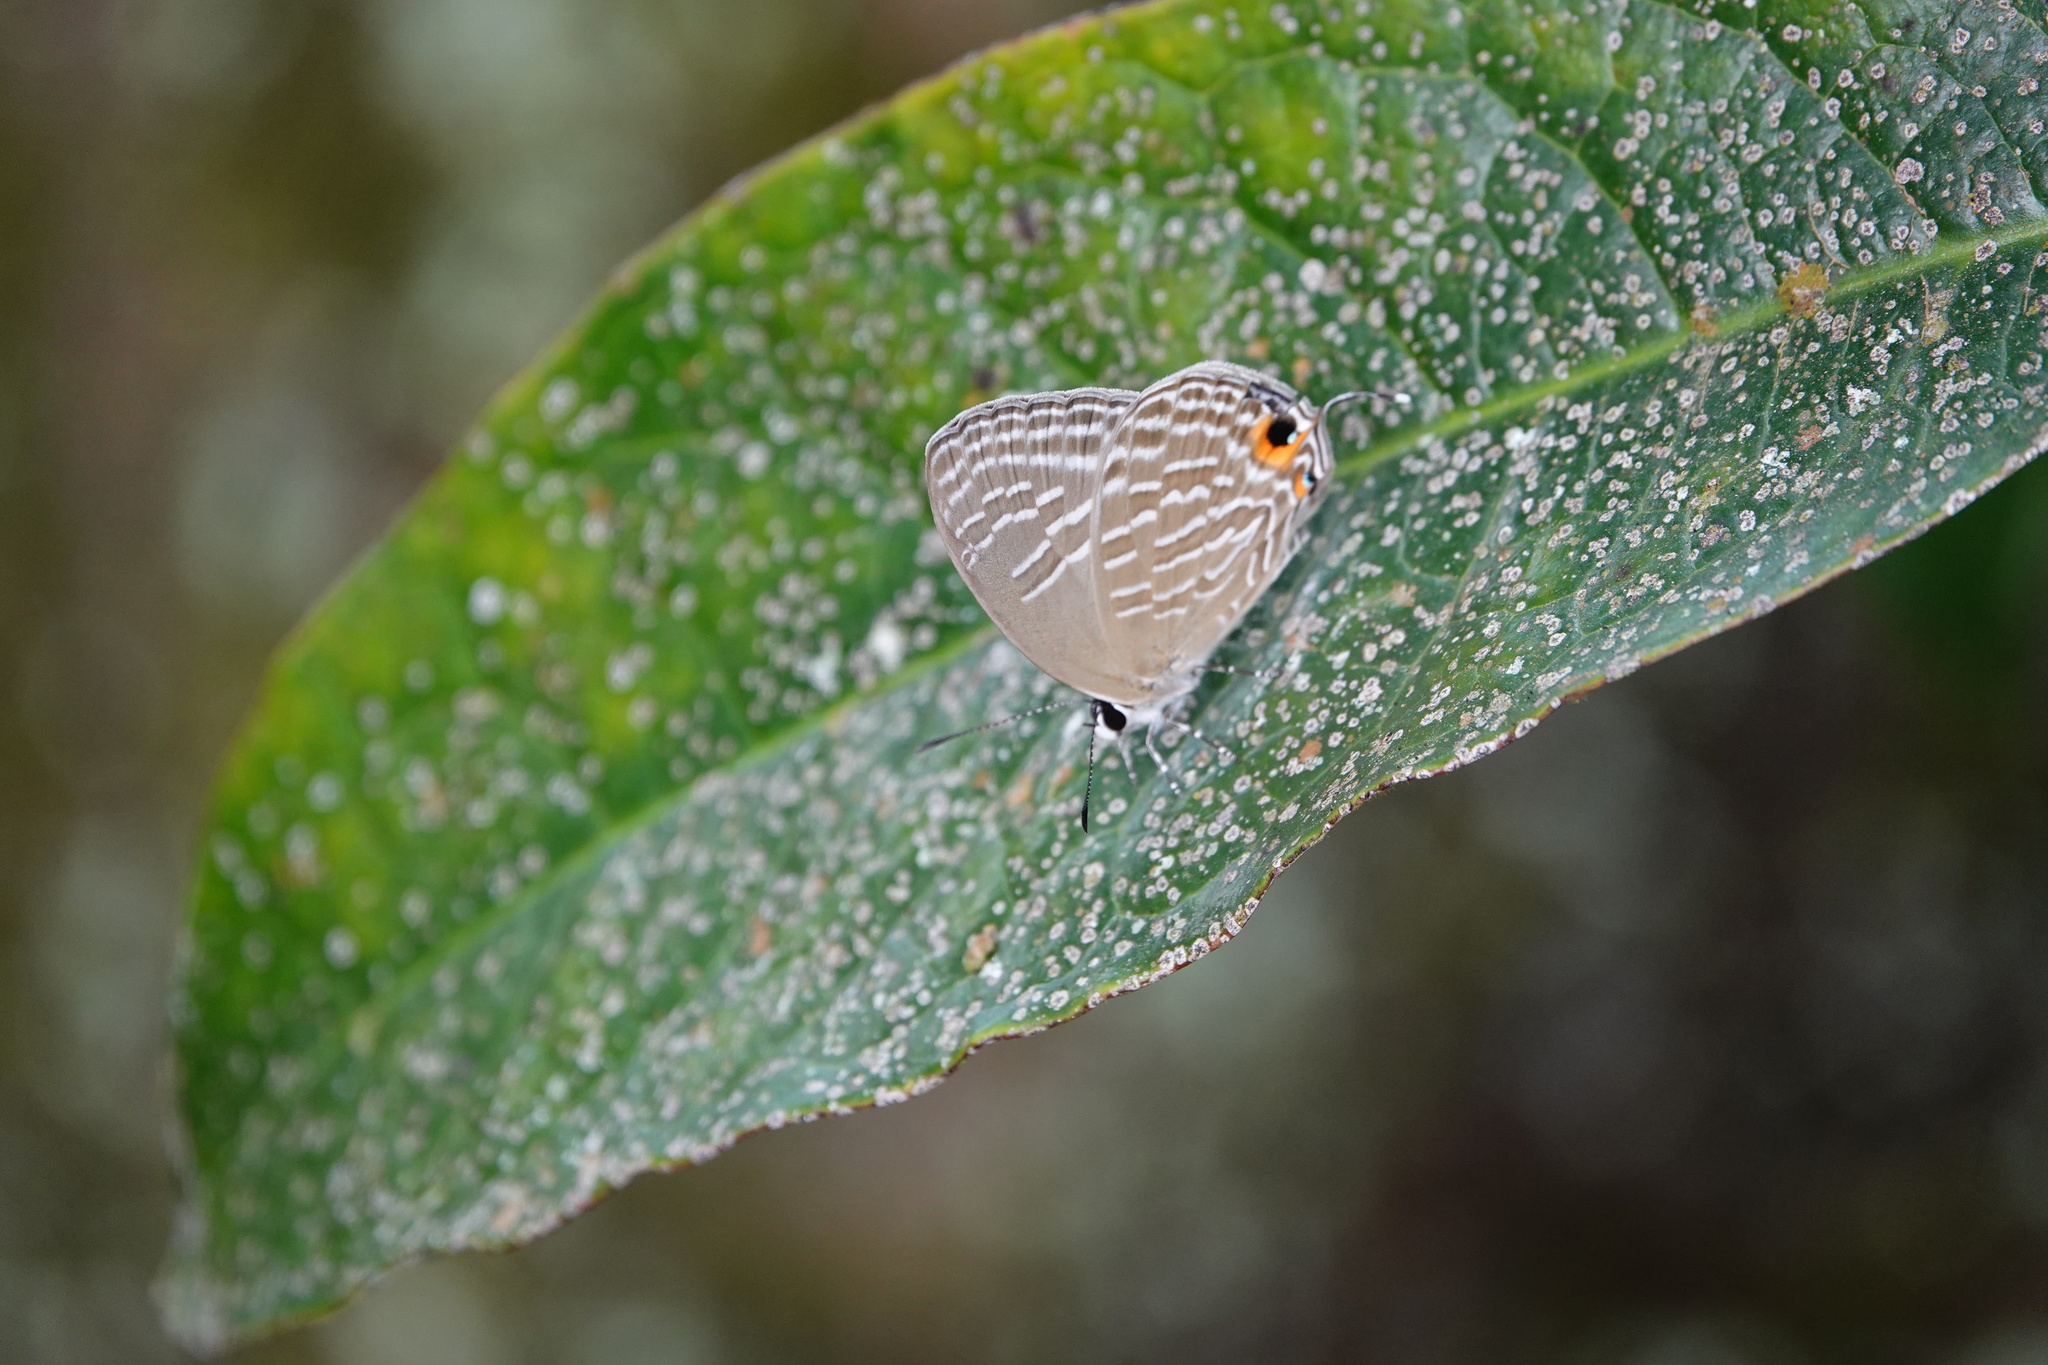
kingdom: Animalia
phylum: Arthropoda
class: Insecta
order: Lepidoptera
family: Lycaenidae
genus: Jamides
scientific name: Jamides alecto
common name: Metallic cerulean
